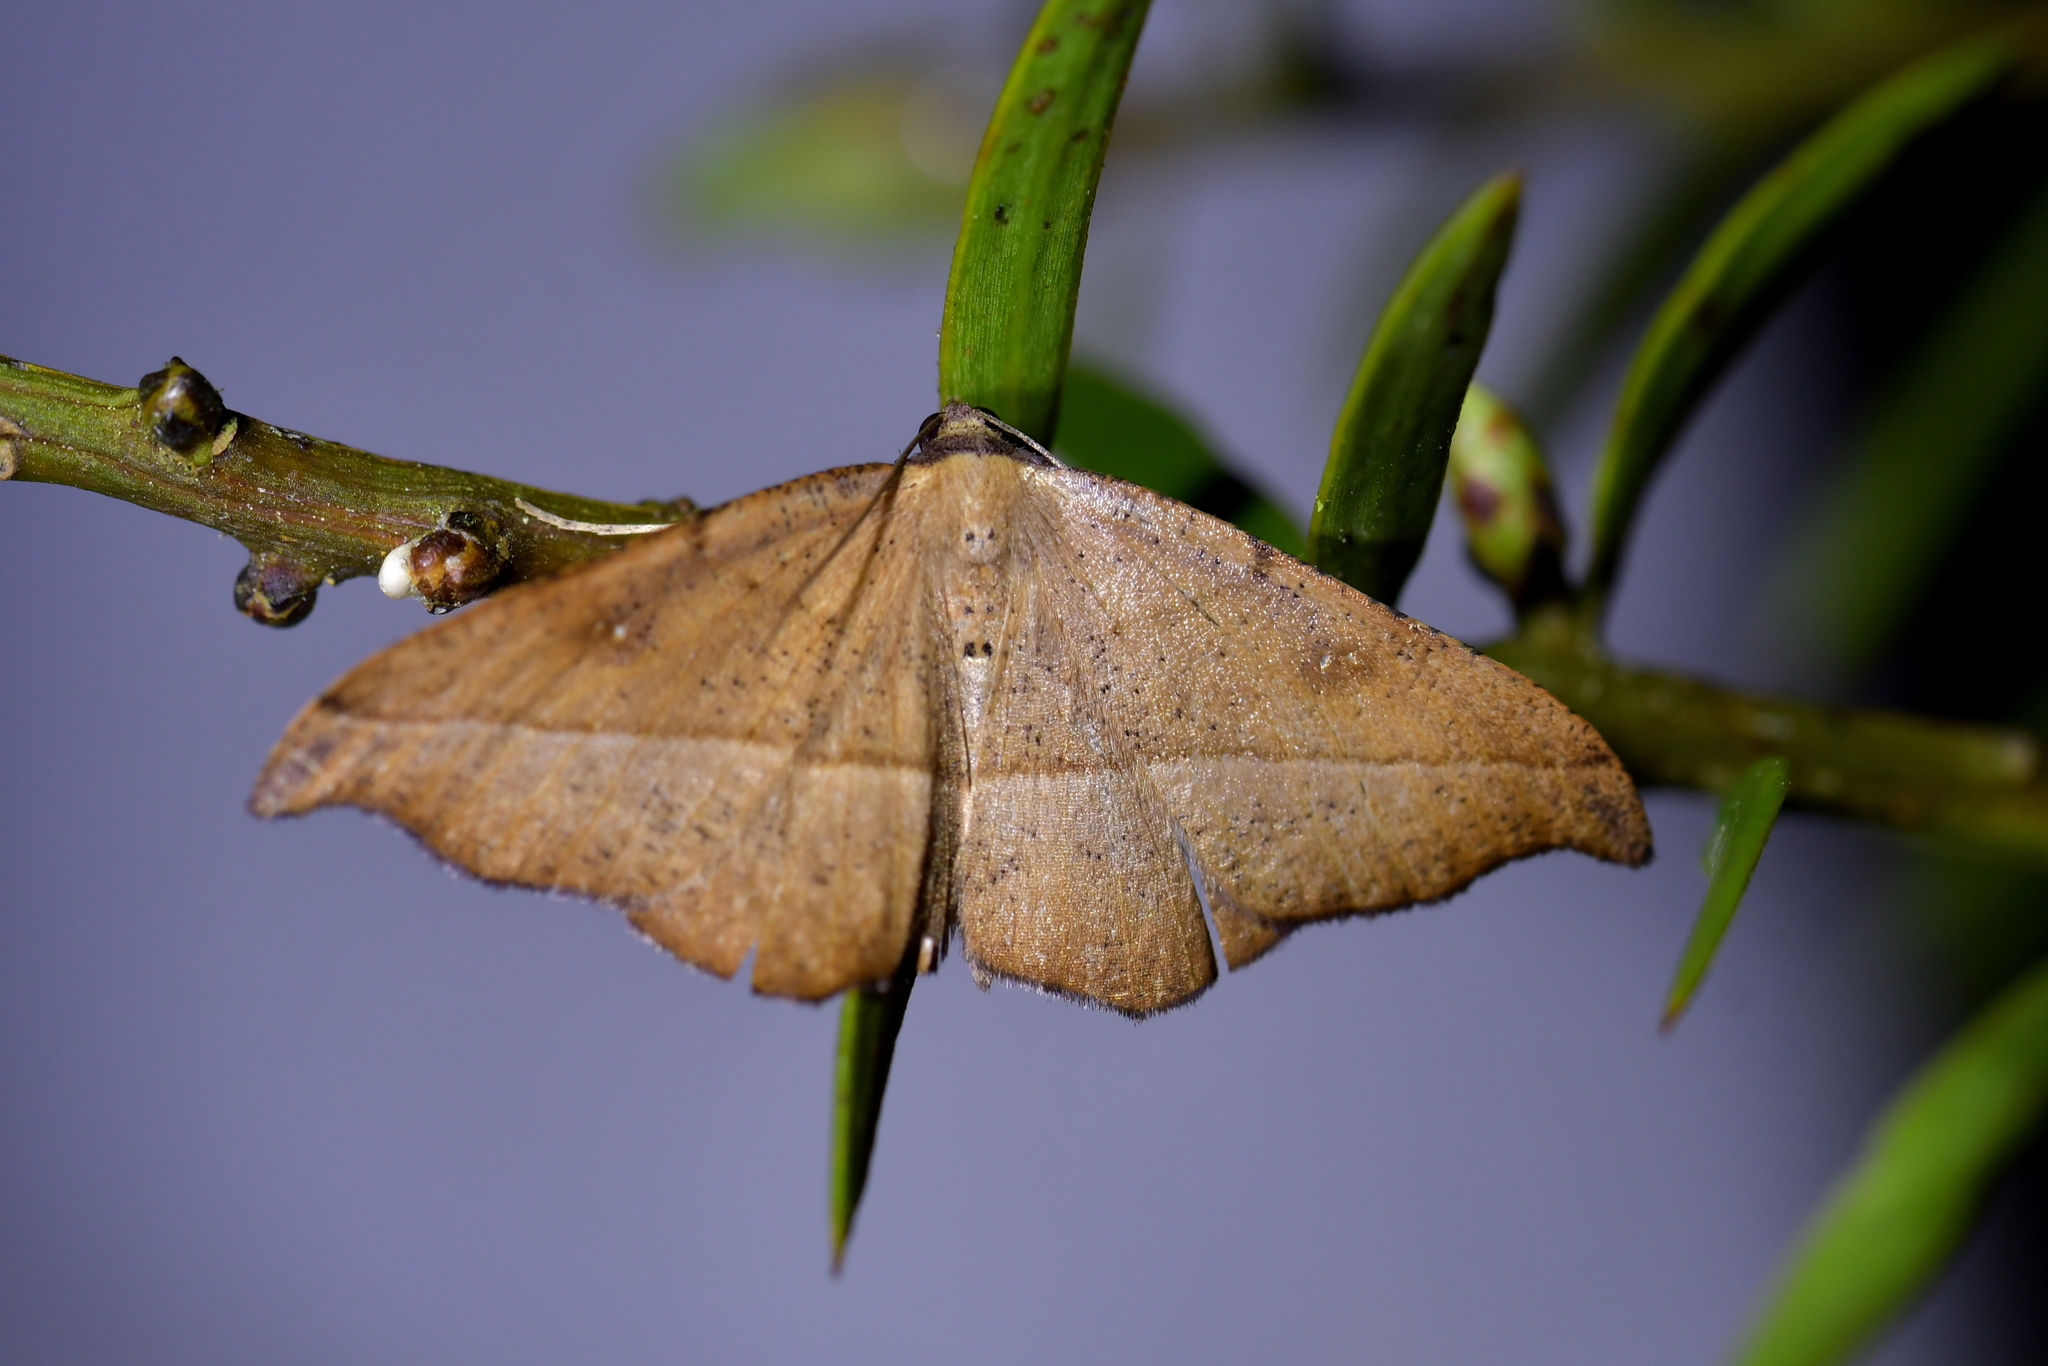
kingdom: Animalia
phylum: Arthropoda
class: Insecta
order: Lepidoptera
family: Geometridae
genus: Sarisa
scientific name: Sarisa muriferata
